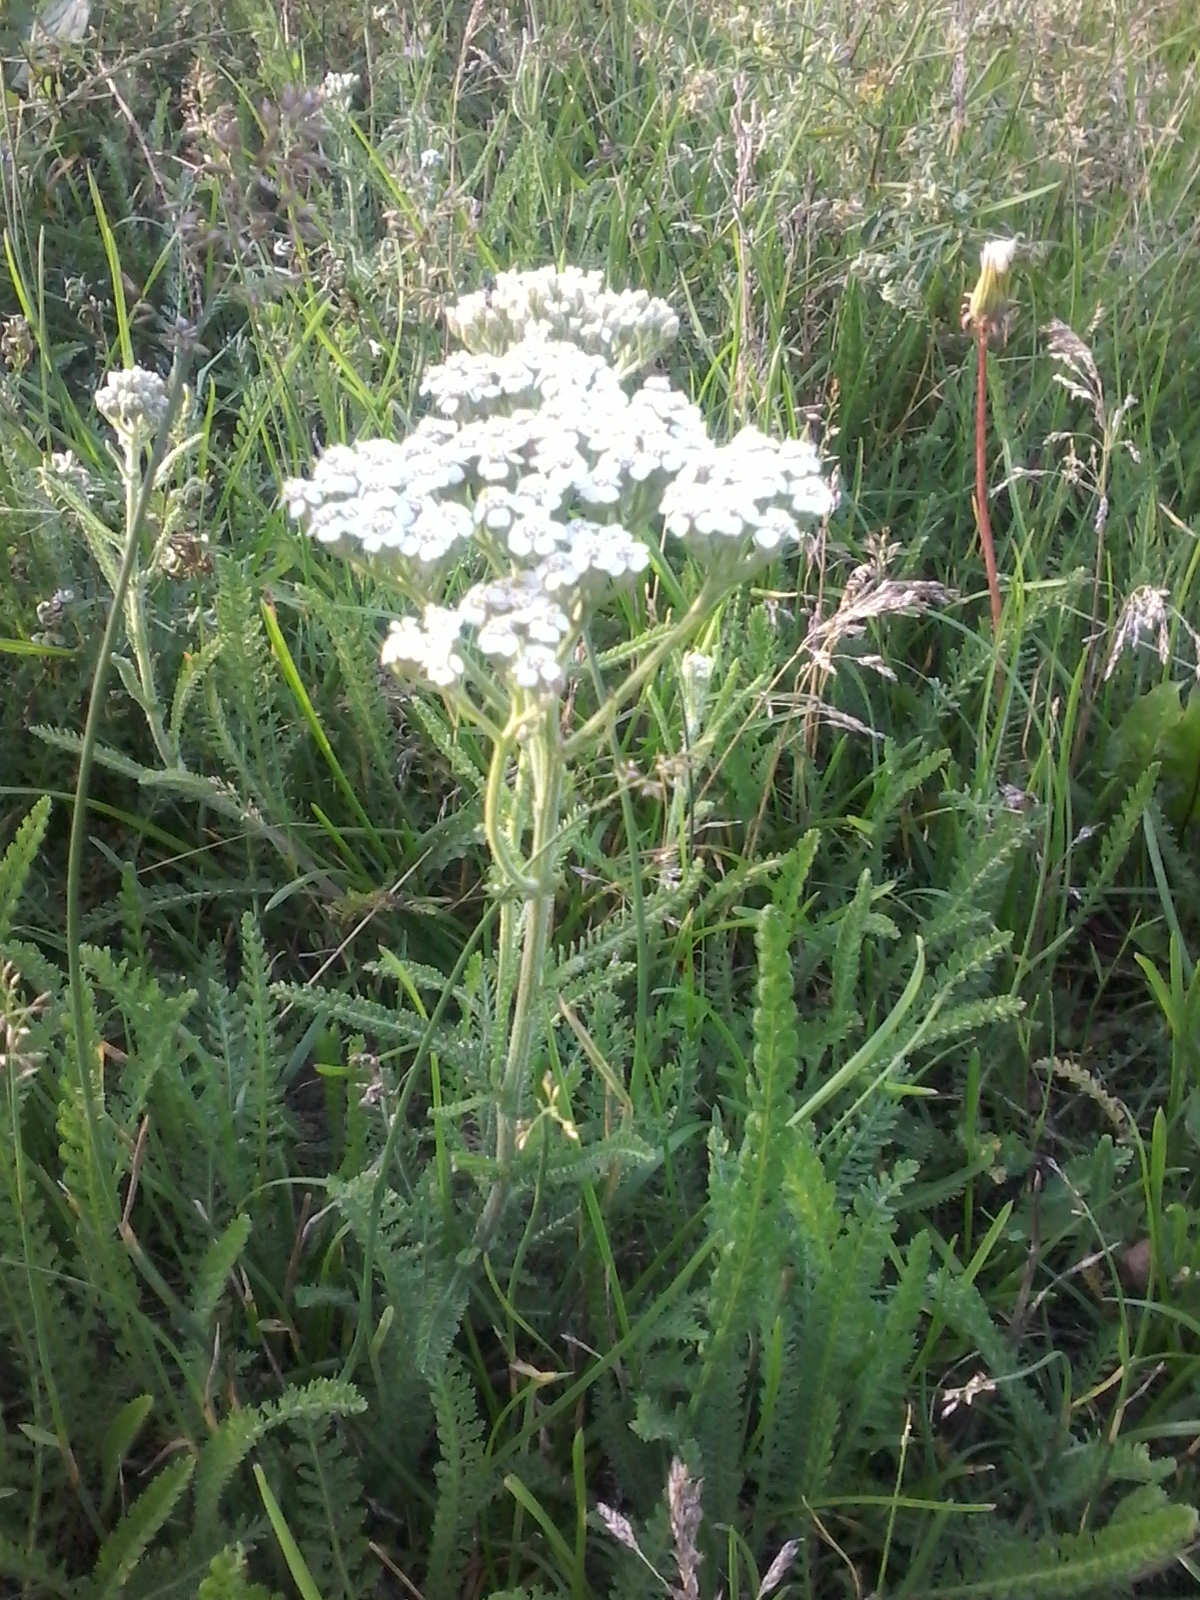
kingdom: Plantae
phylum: Tracheophyta
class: Magnoliopsida
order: Asterales
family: Asteraceae
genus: Achillea
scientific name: Achillea millefolium
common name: Yarrow
